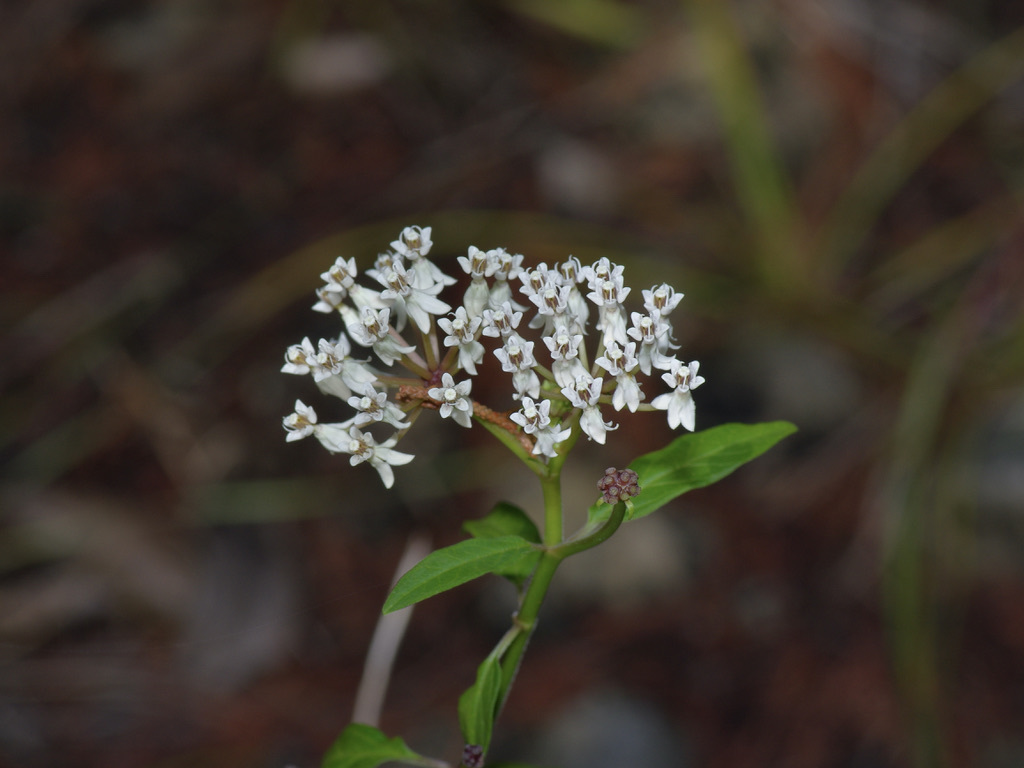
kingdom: Plantae
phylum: Tracheophyta
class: Magnoliopsida
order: Gentianales
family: Apocynaceae
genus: Asclepias
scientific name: Asclepias texana
